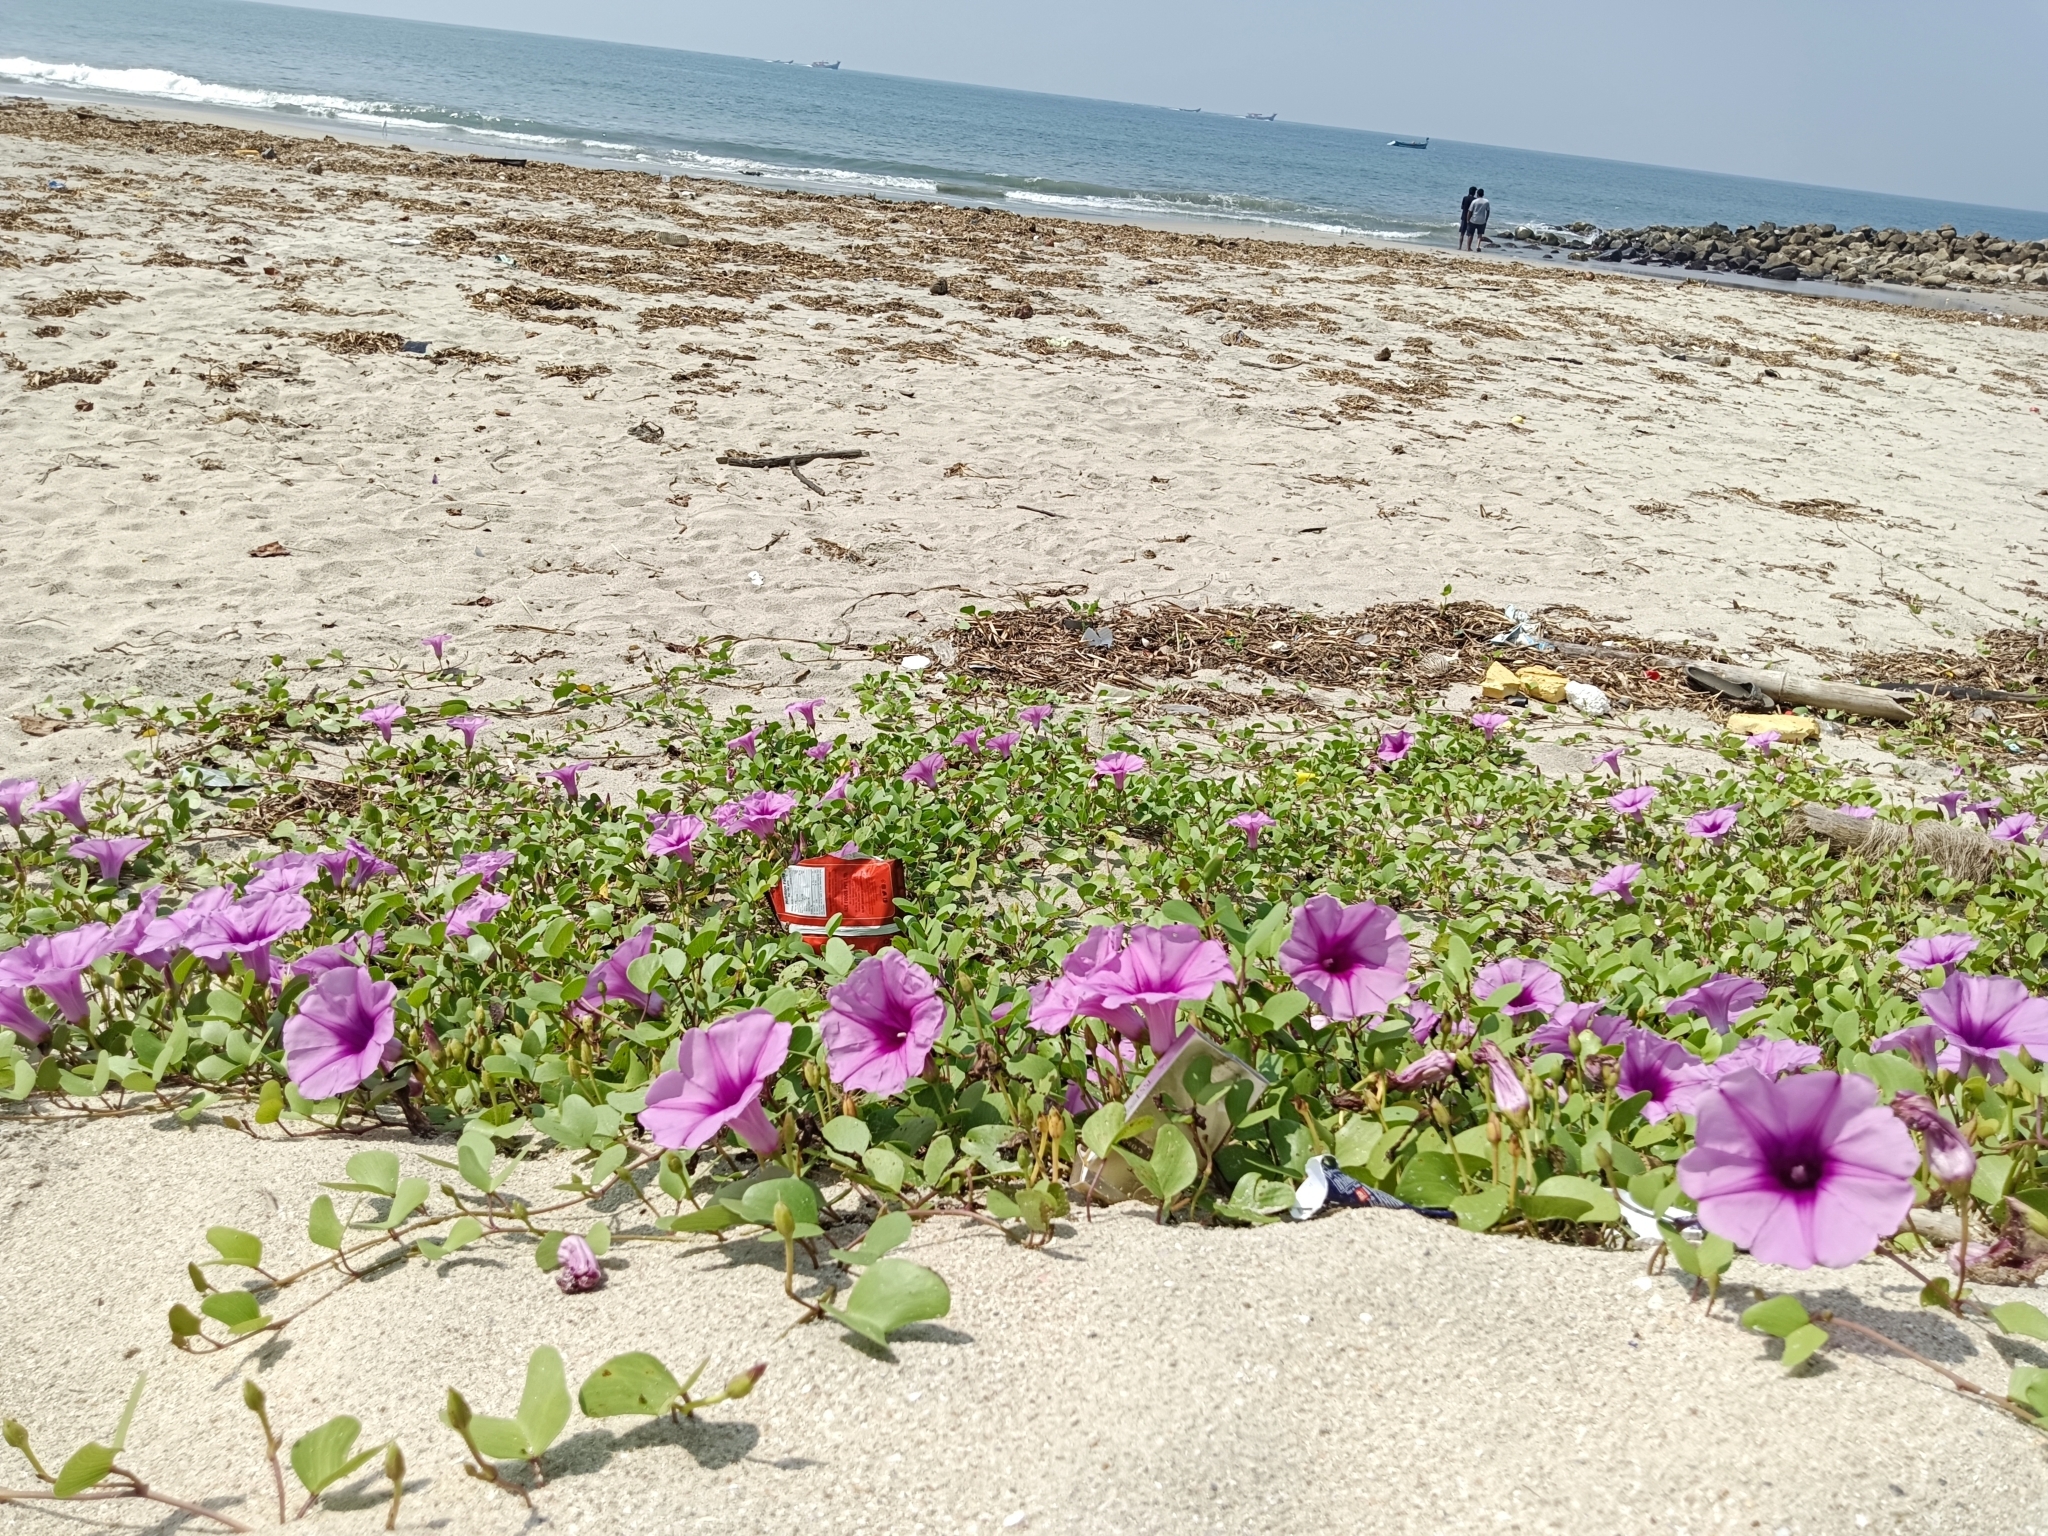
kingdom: Plantae
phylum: Tracheophyta
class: Magnoliopsida
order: Solanales
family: Convolvulaceae
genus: Ipomoea
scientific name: Ipomoea pes-caprae
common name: Beach morning glory
